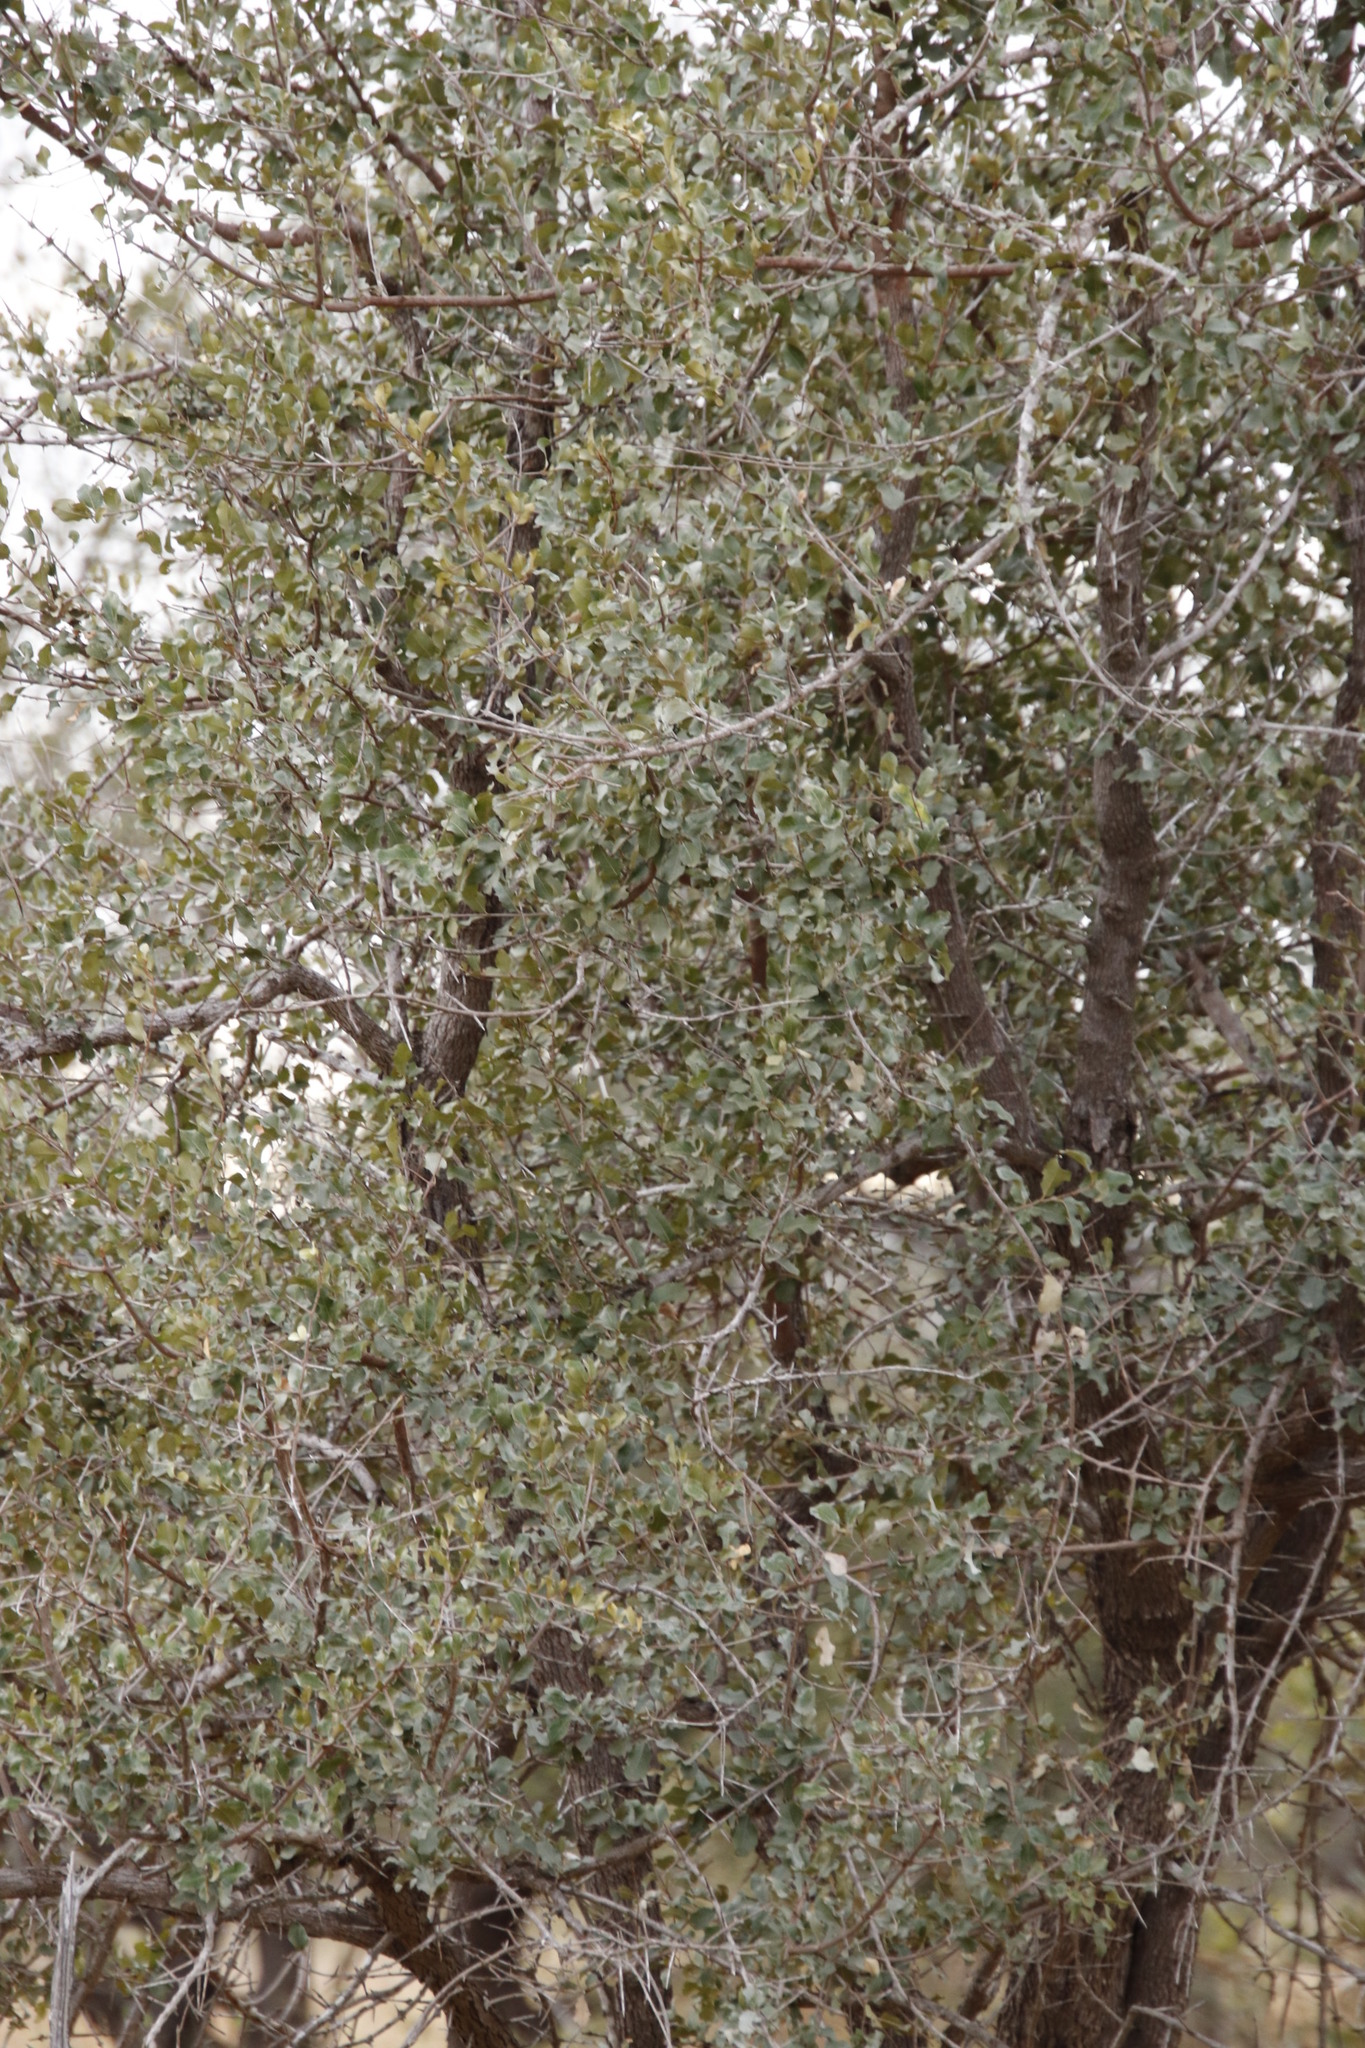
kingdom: Plantae
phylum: Tracheophyta
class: Magnoliopsida
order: Myrtales
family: Combretaceae
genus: Combretum
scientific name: Combretum imberbe
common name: Leadwood
